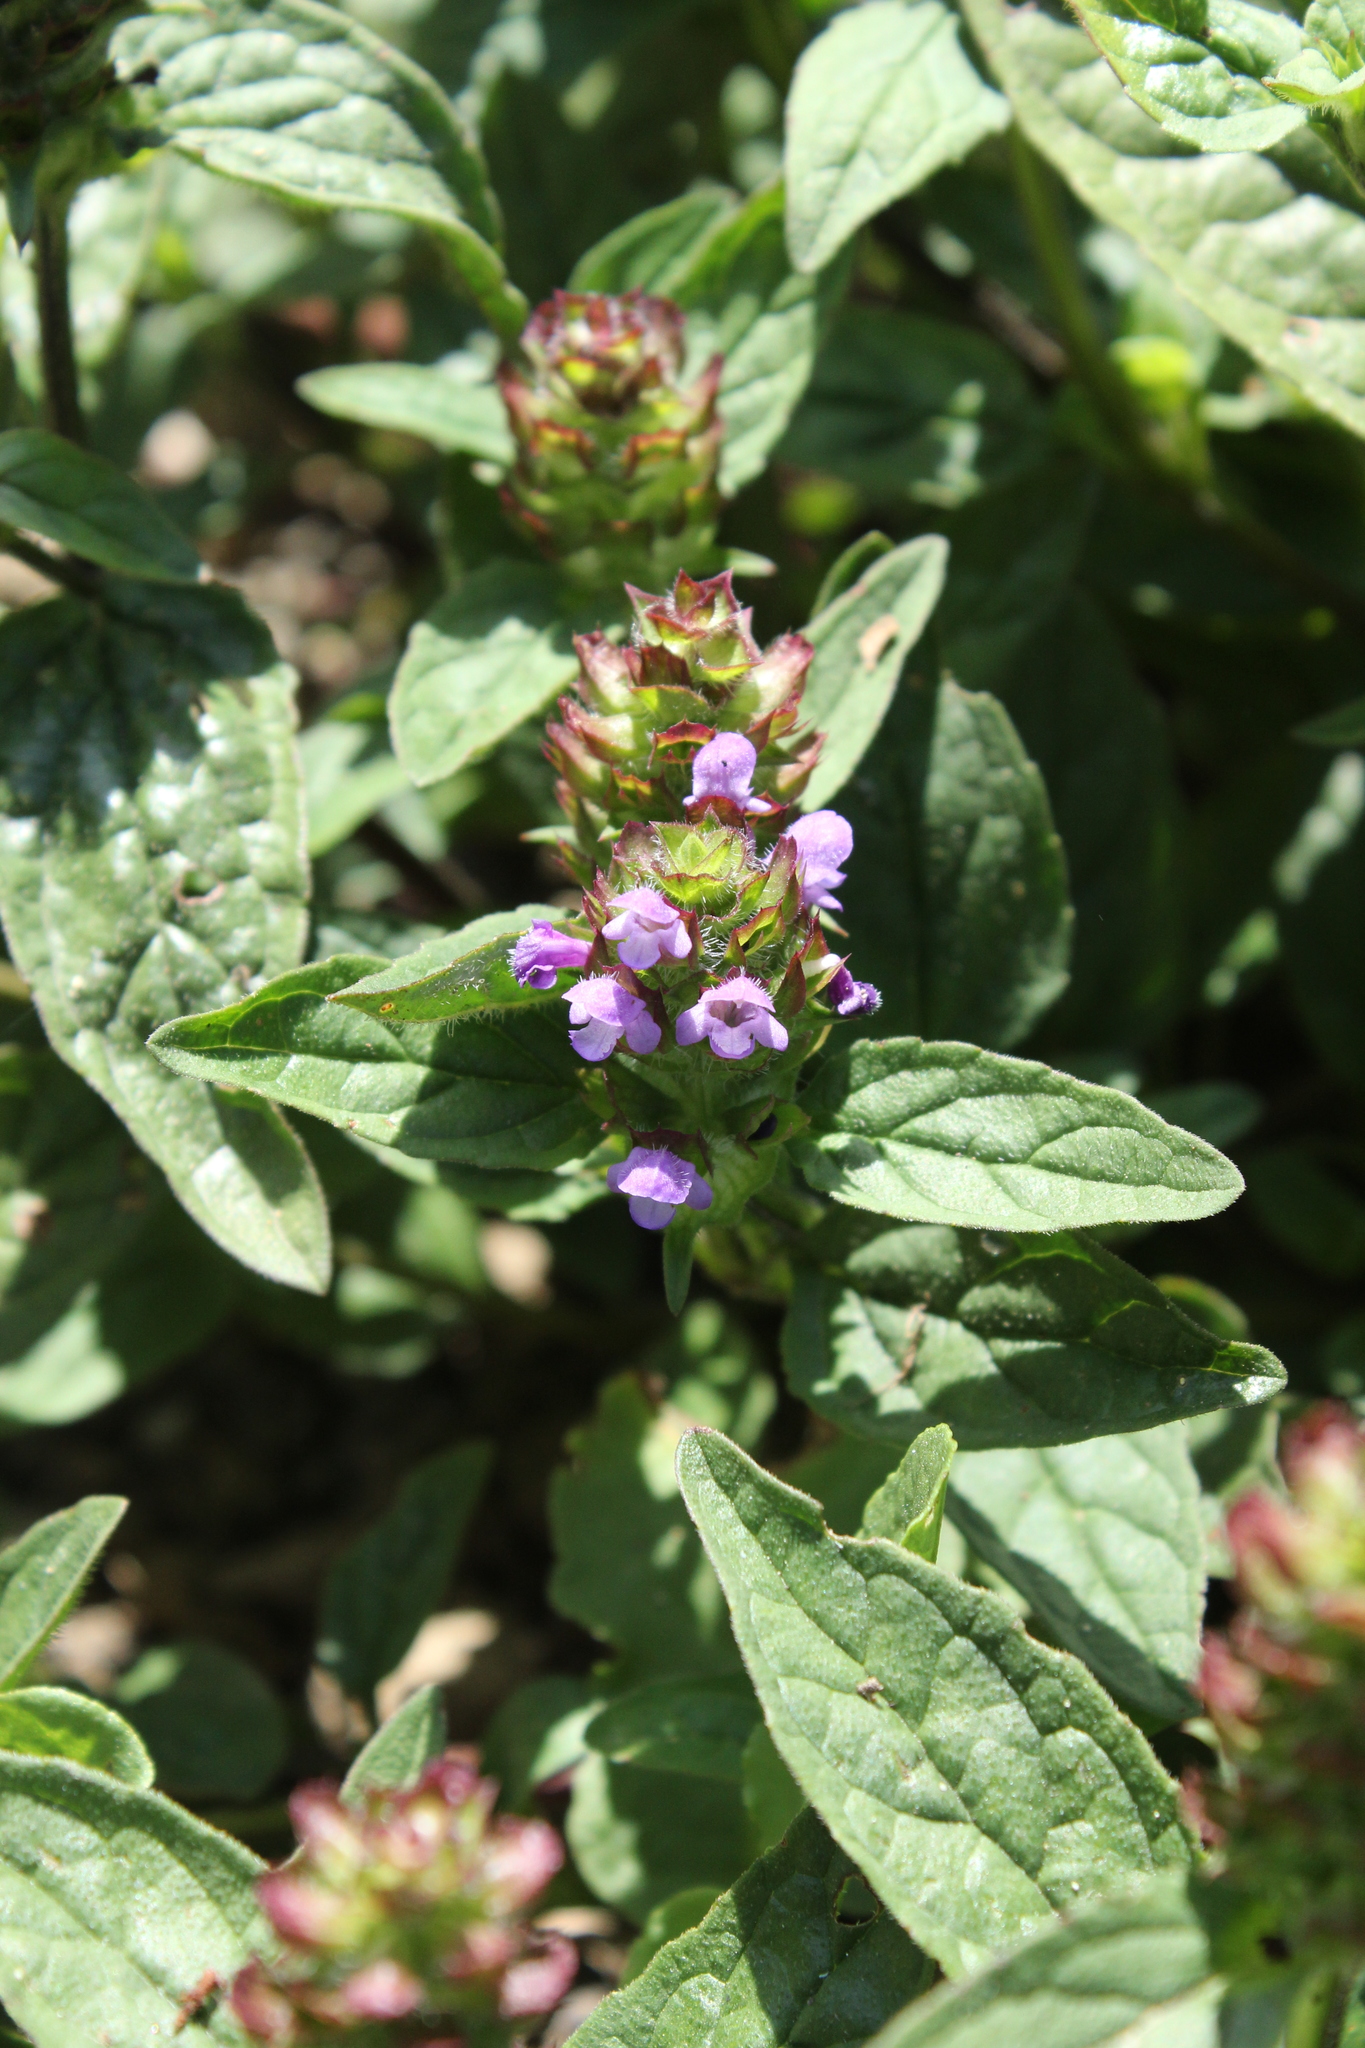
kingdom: Plantae
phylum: Tracheophyta
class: Magnoliopsida
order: Lamiales
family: Lamiaceae
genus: Prunella
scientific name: Prunella vulgaris
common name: Heal-all
